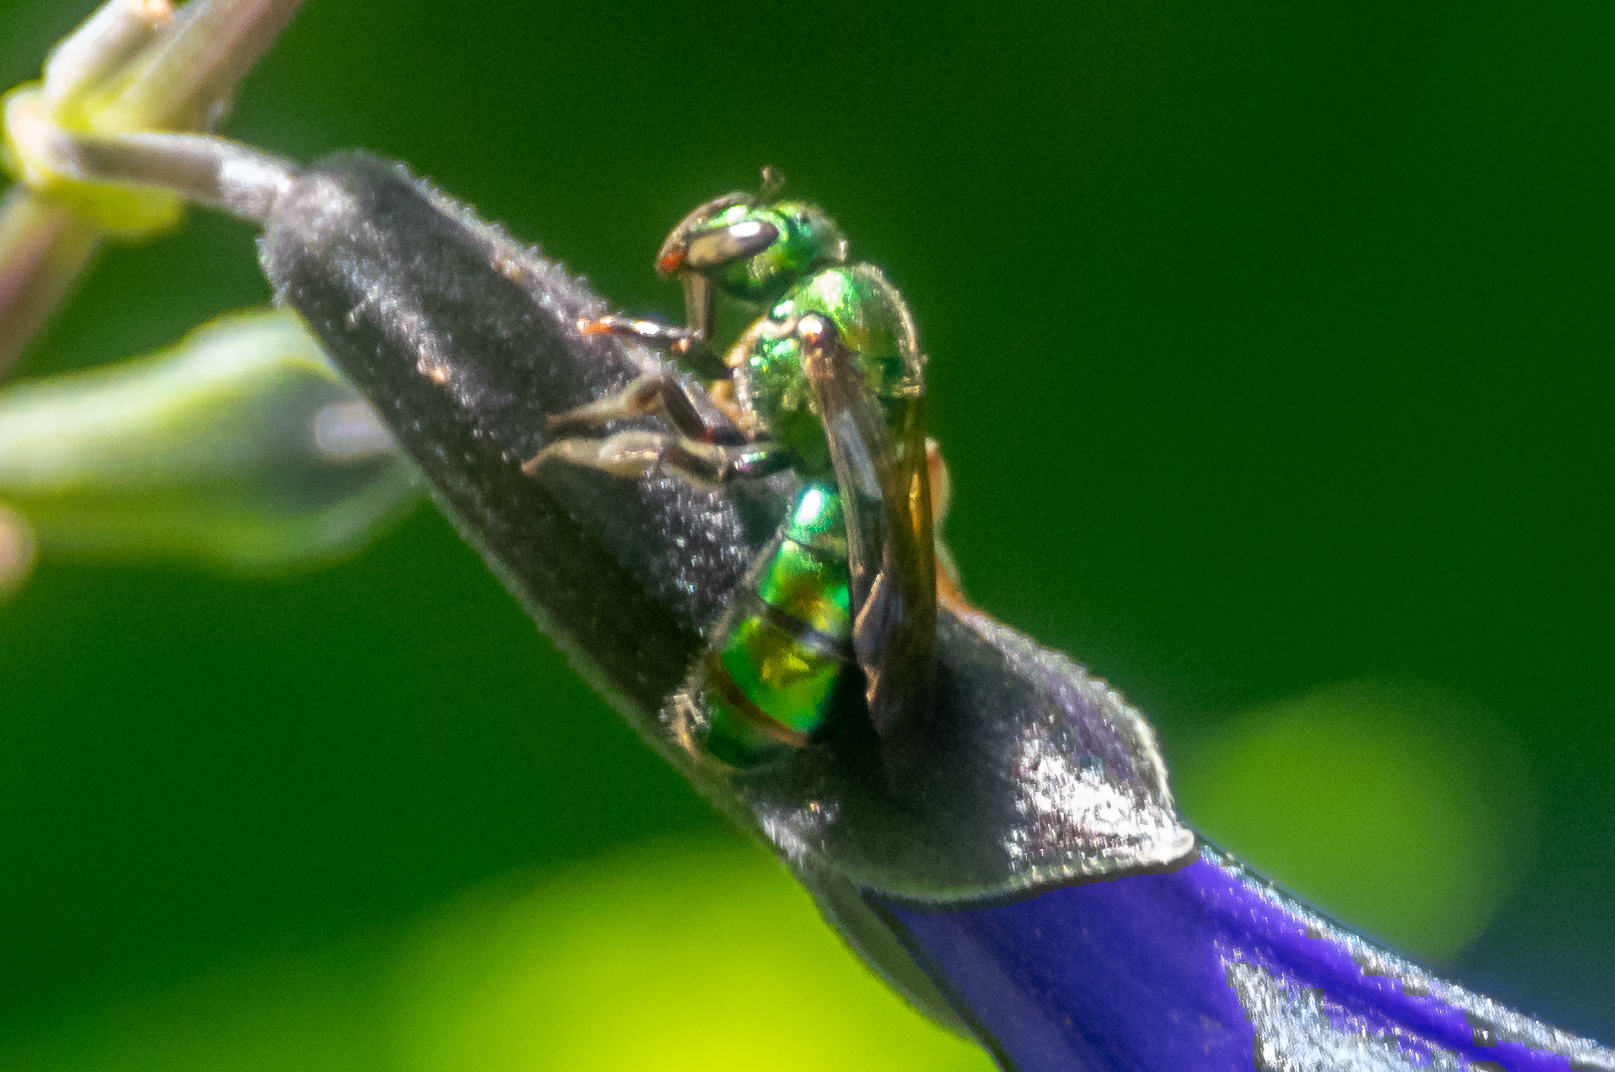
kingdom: Animalia
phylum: Arthropoda
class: Insecta
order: Hymenoptera
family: Halictidae
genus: Augochlora
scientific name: Augochlora pura
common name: Pure green sweat bee
